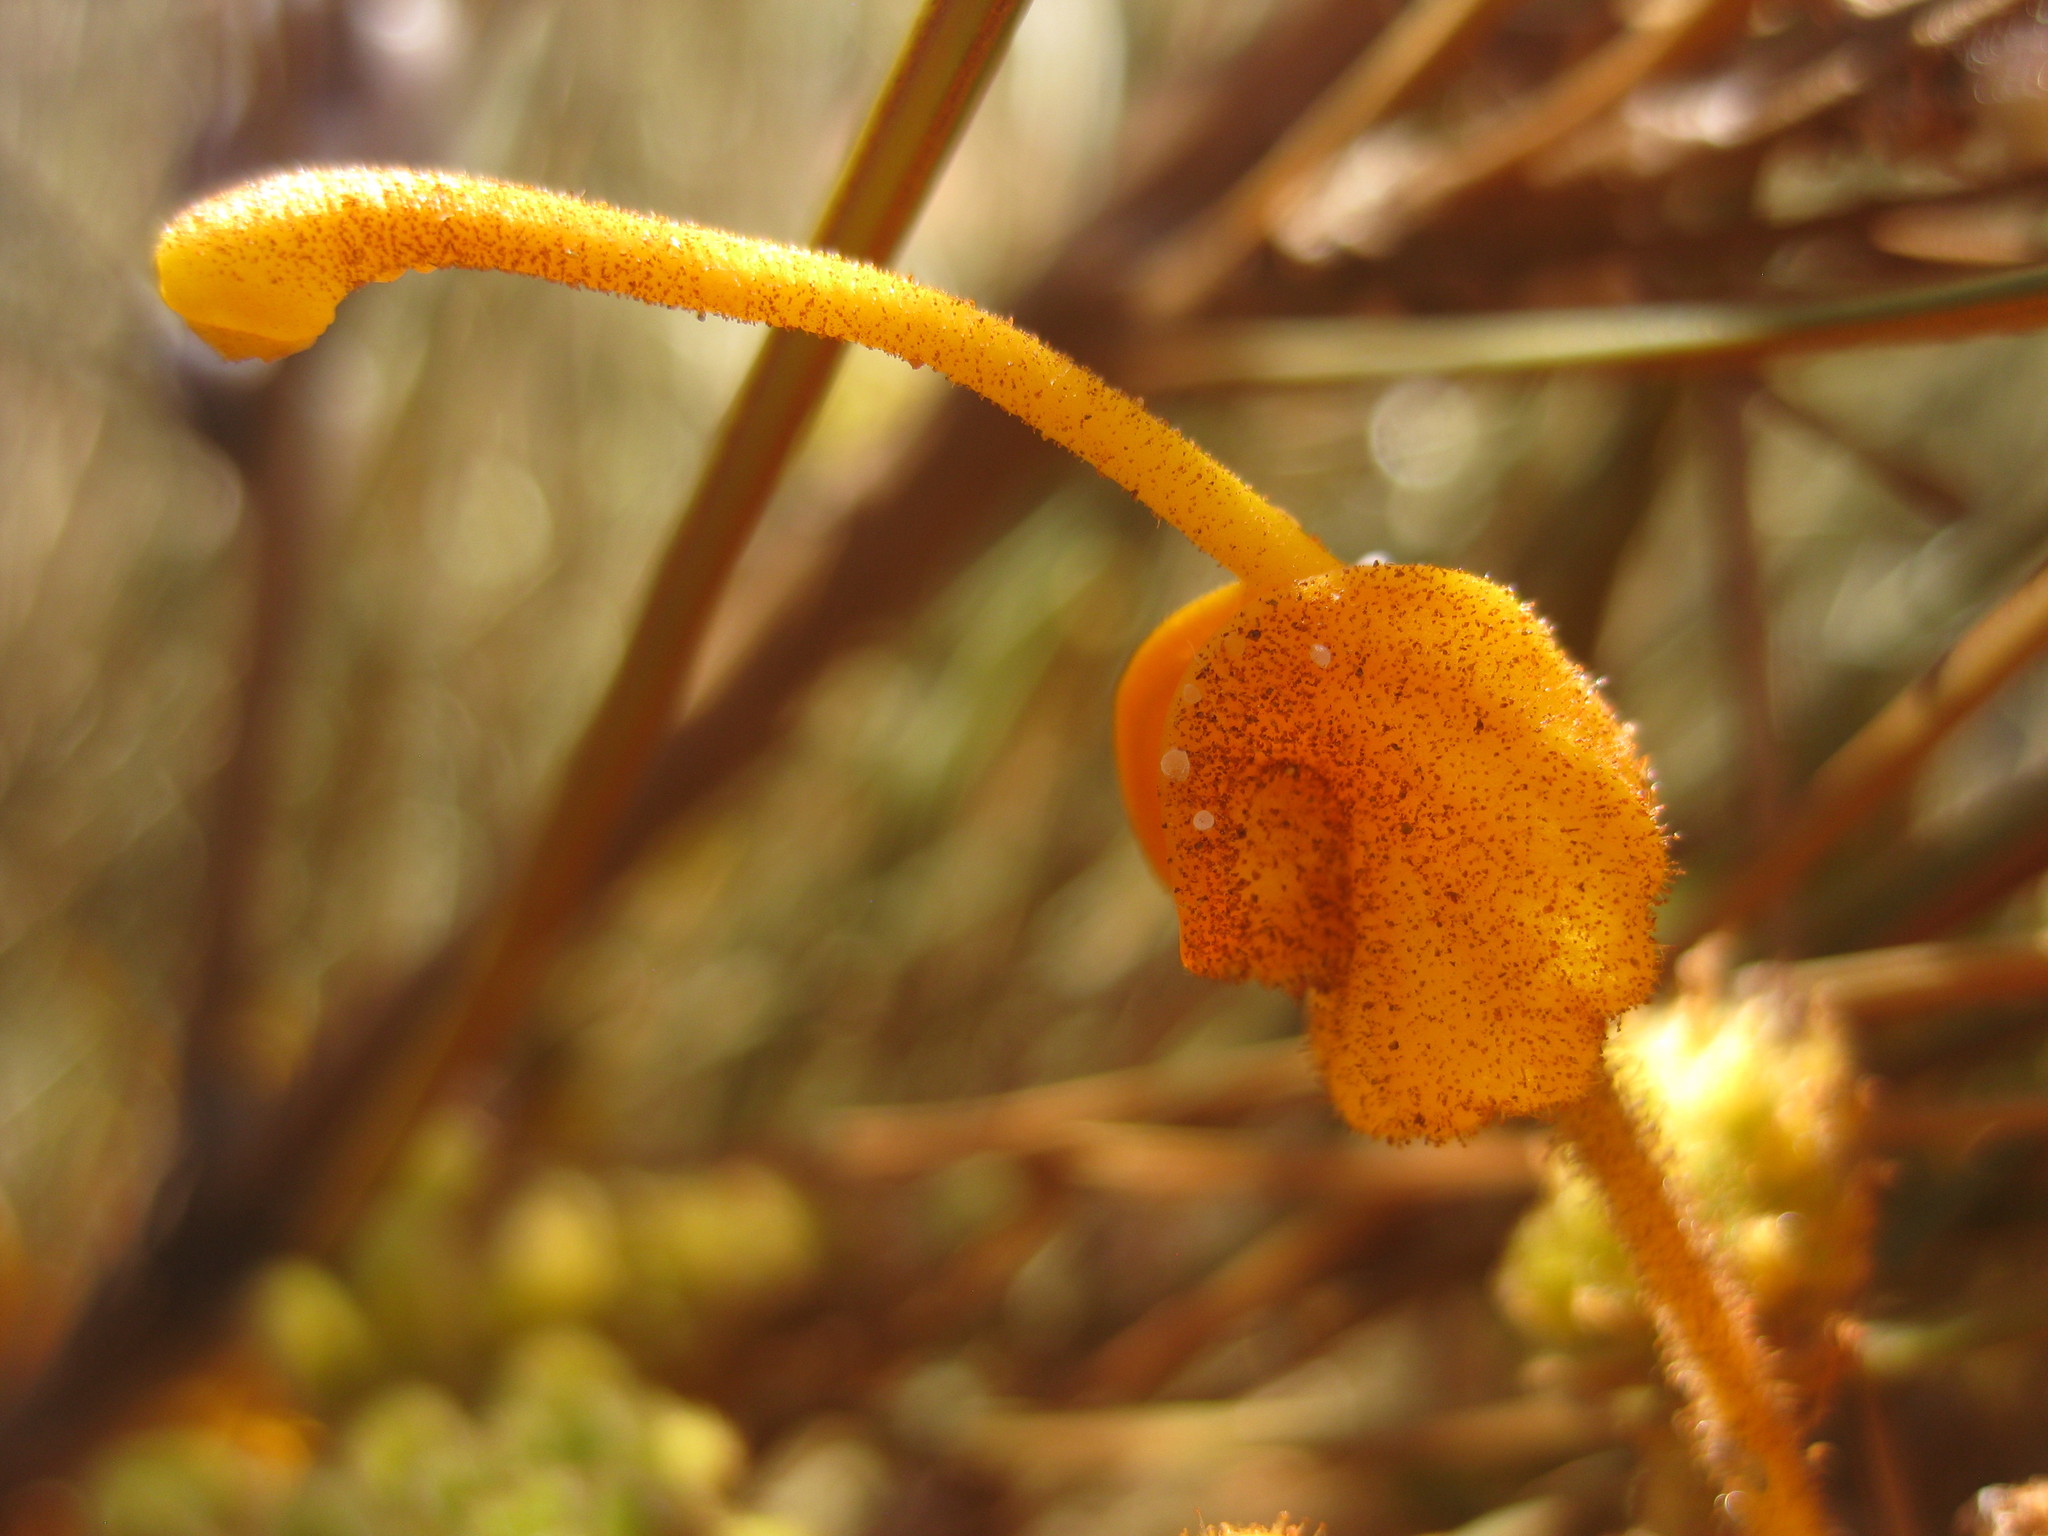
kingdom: Plantae
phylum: Tracheophyta
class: Magnoliopsida
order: Proteales
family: Proteaceae
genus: Grevillea
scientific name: Grevillea juncifolia
